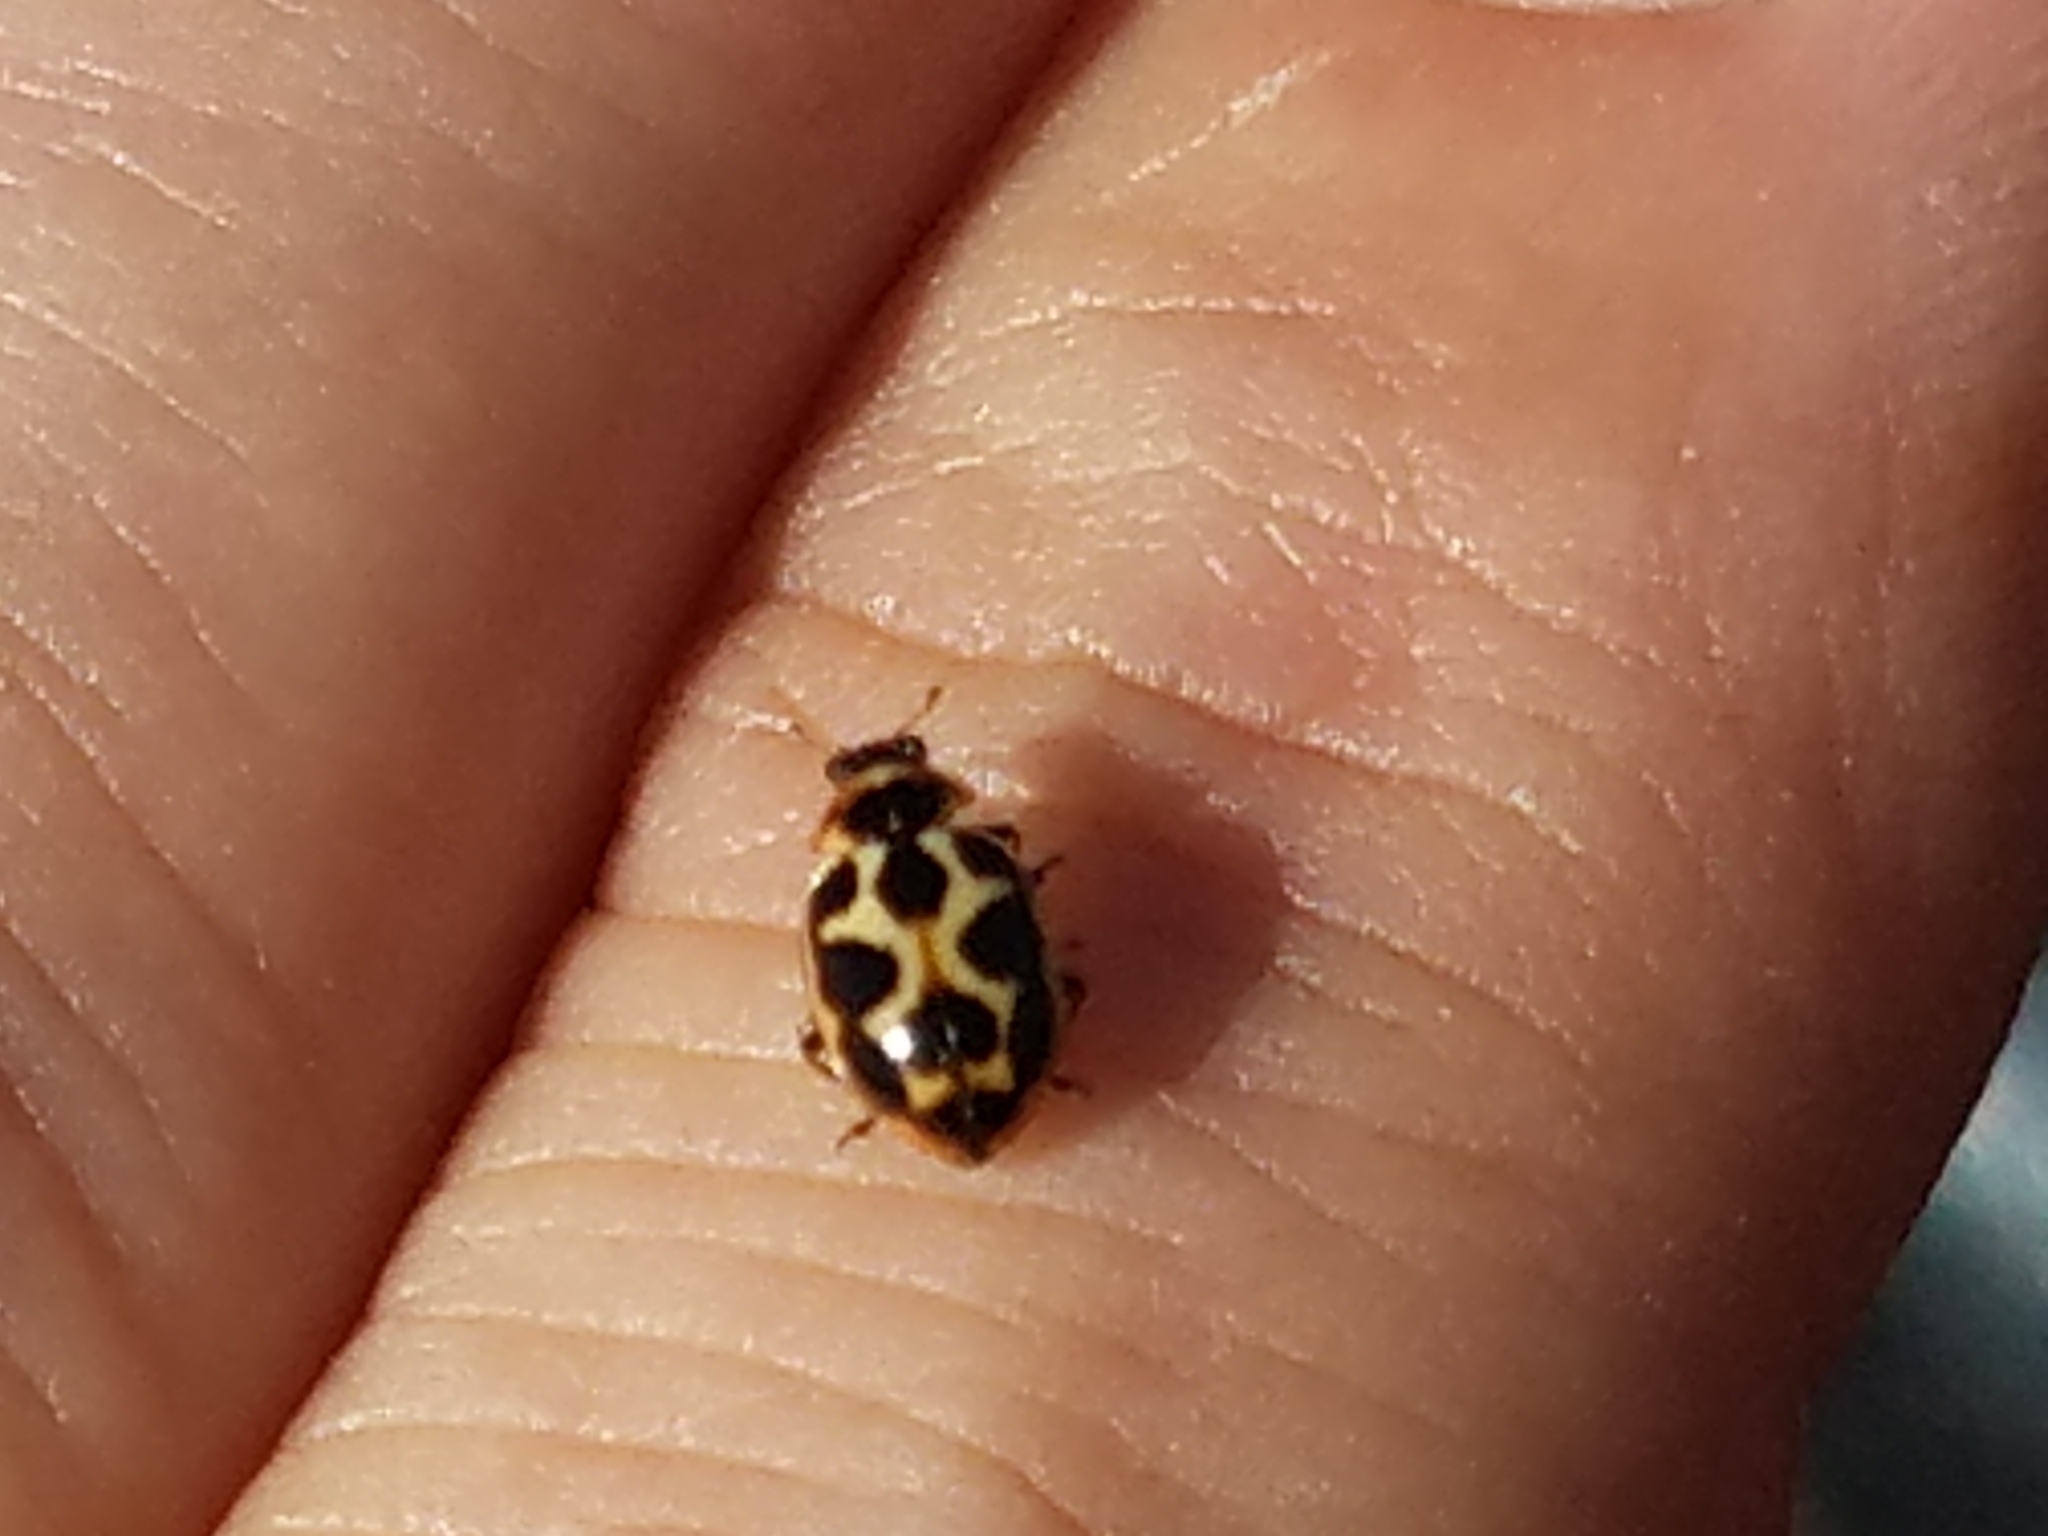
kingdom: Animalia
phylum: Arthropoda
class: Insecta
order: Coleoptera
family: Coccinellidae
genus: Naemia
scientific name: Naemia seriata
